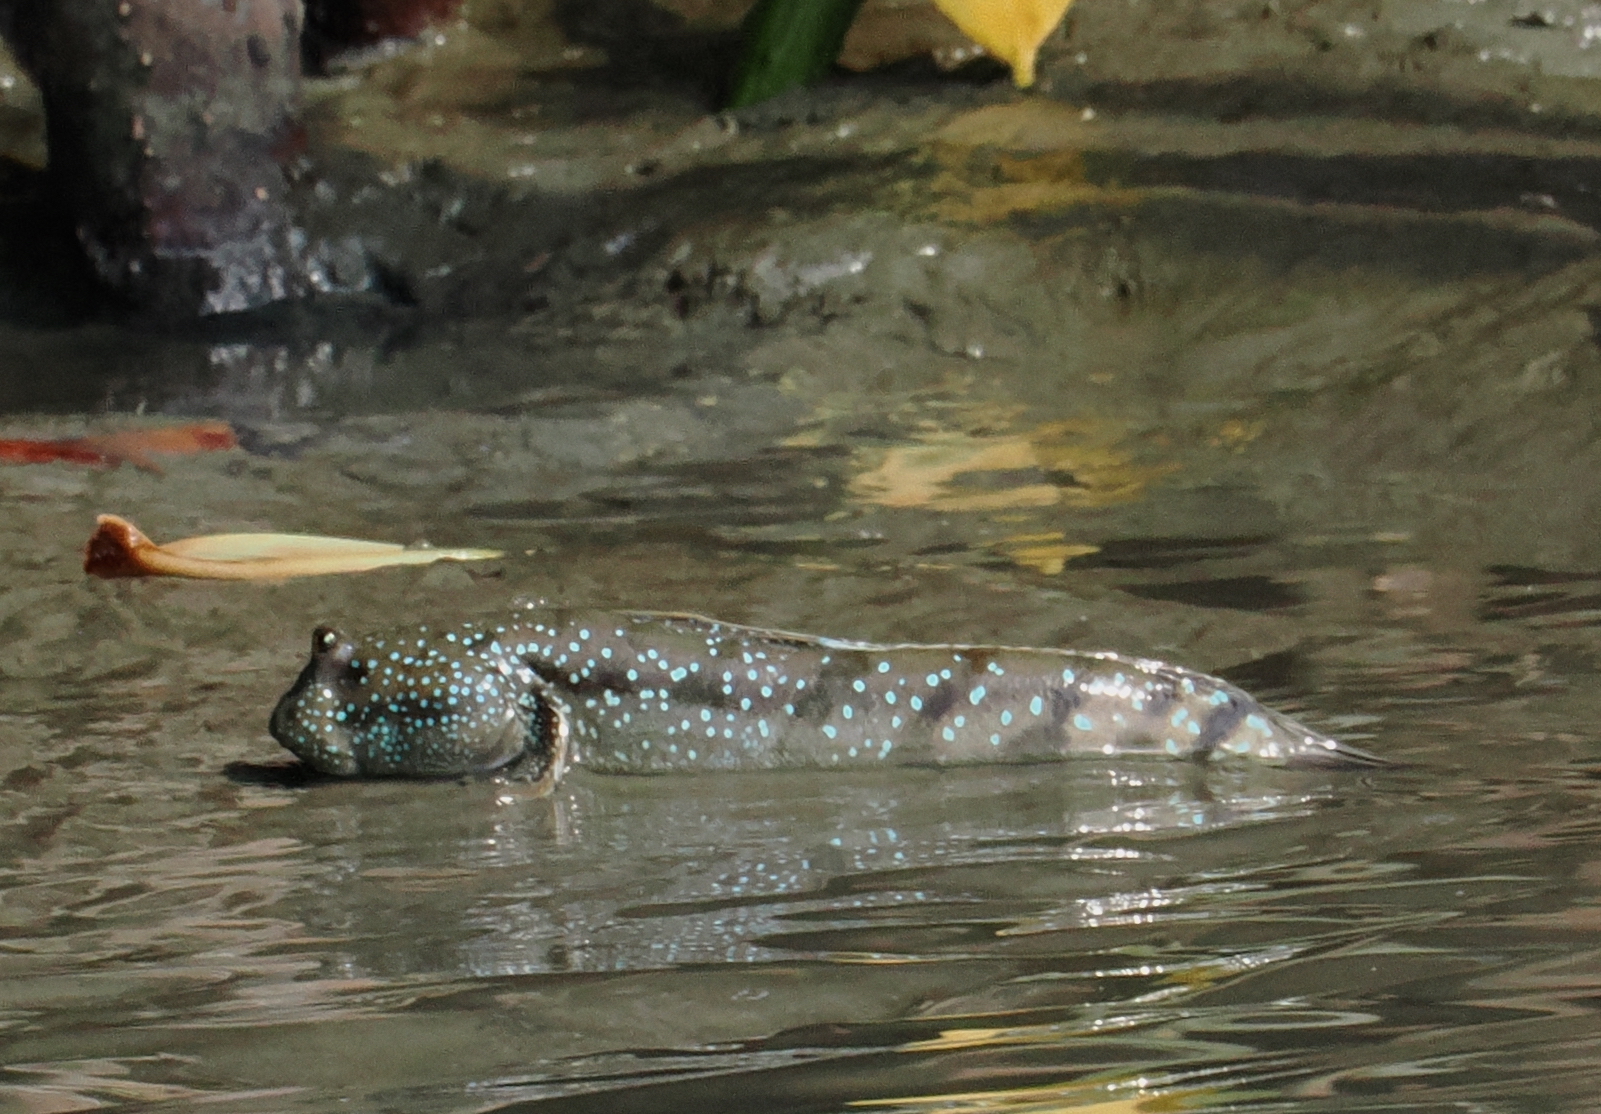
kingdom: Animalia
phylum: Chordata
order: Perciformes
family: Gobiidae
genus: Boleophthalmus
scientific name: Boleophthalmus boddarti
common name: Boddart's goggle-eyed goby
